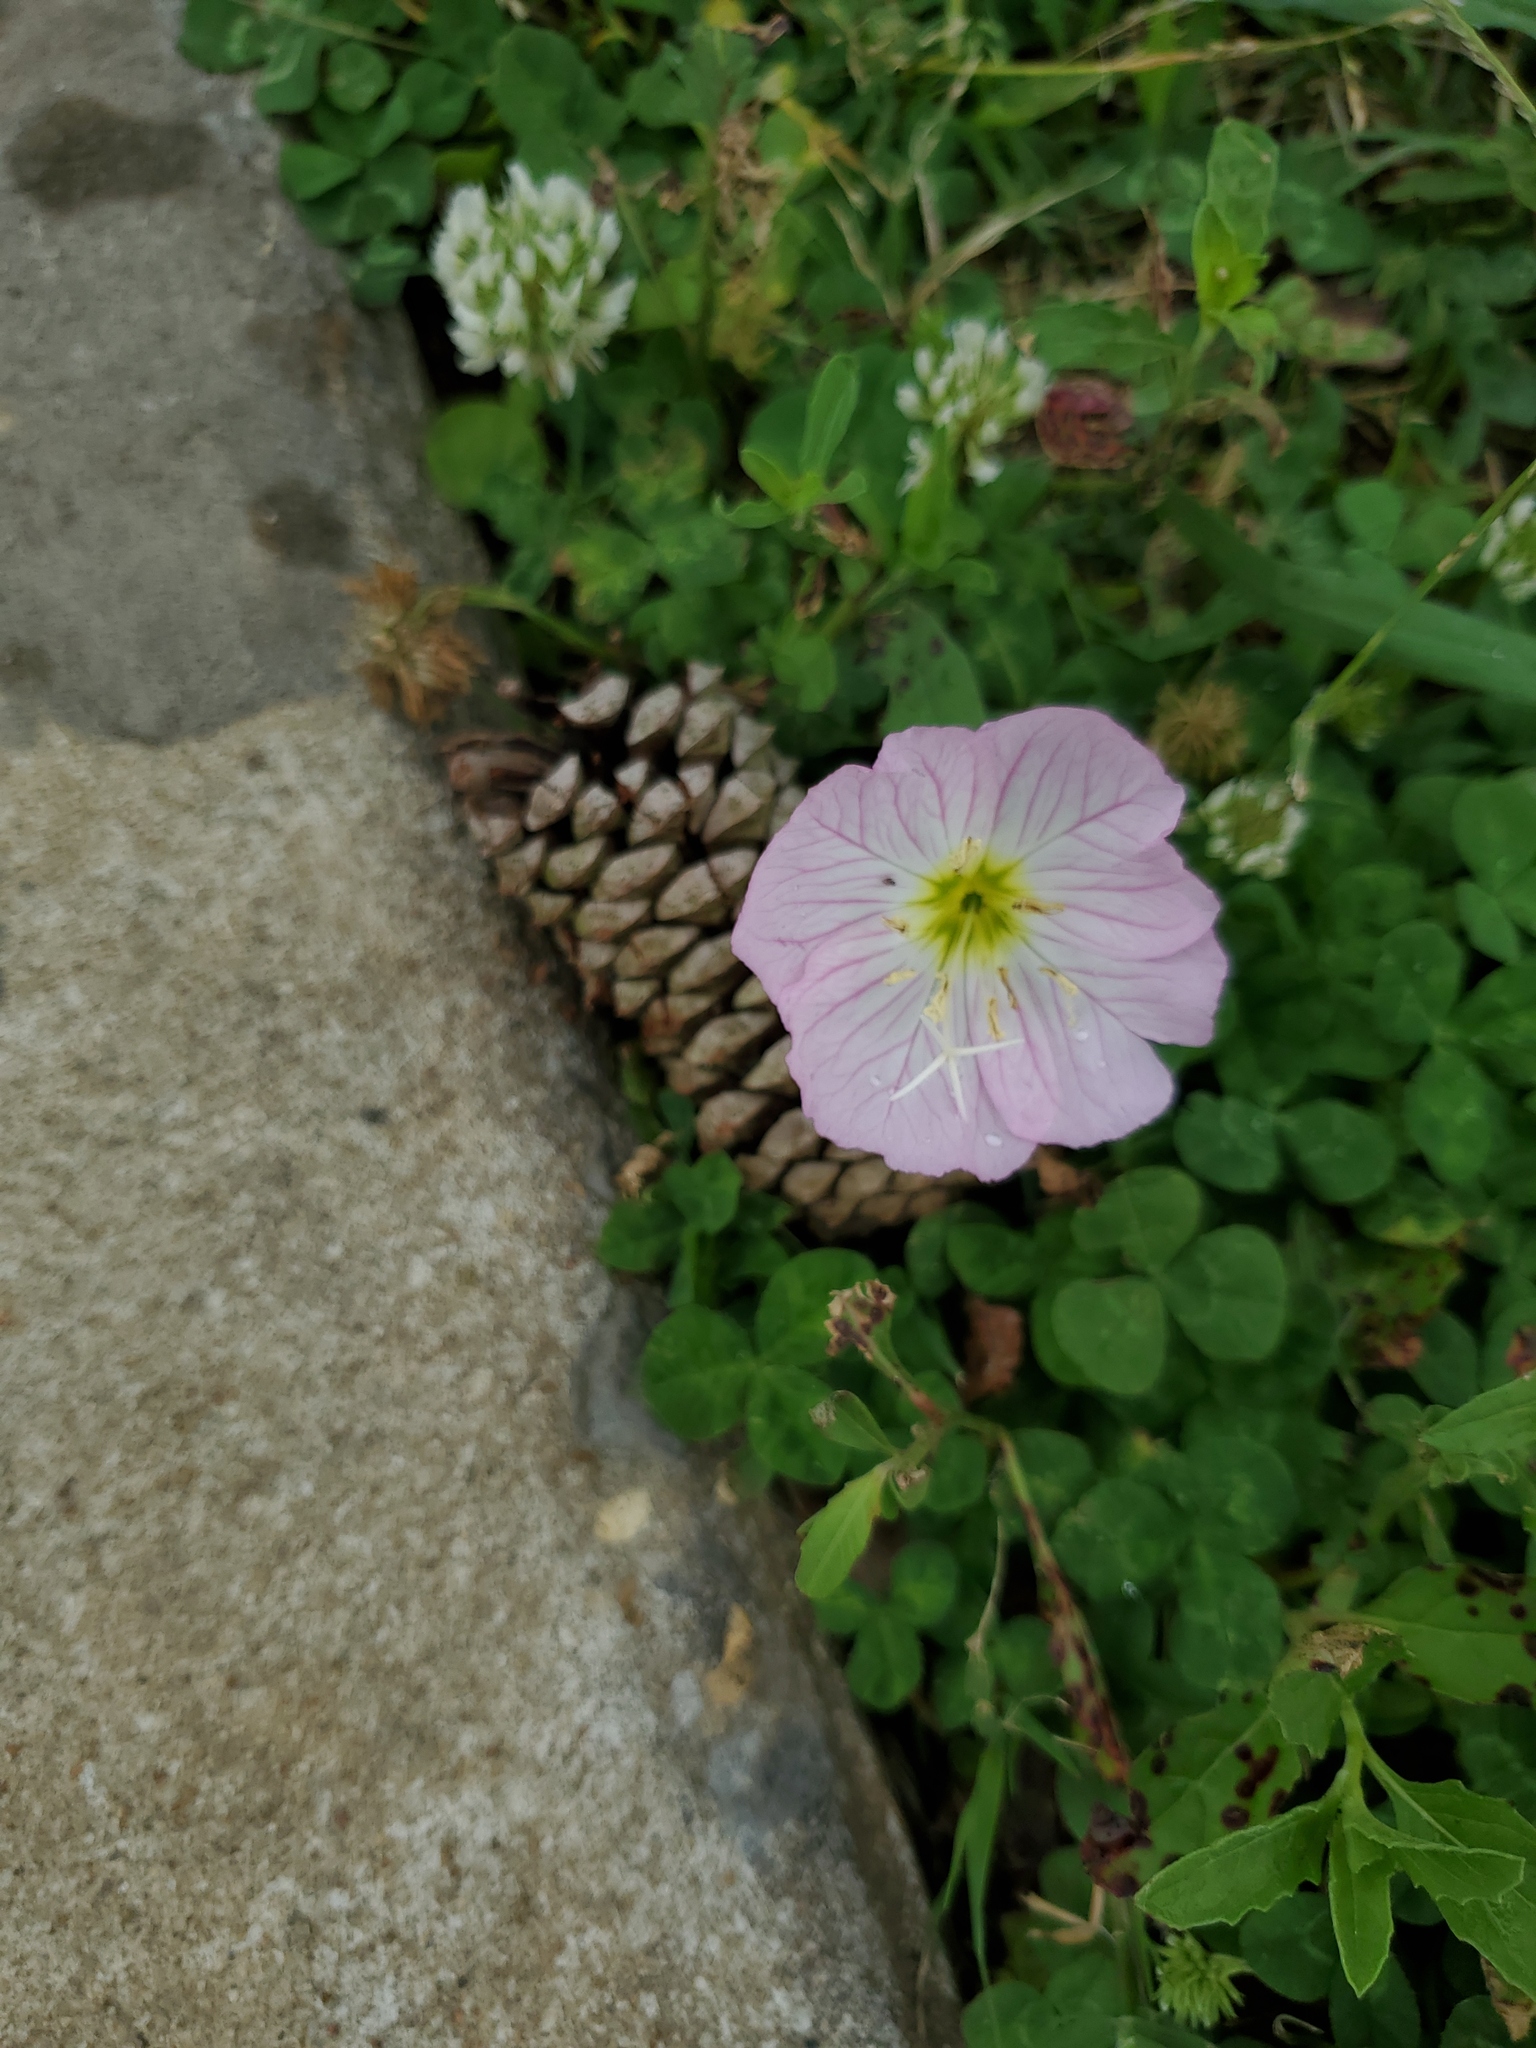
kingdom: Plantae
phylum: Tracheophyta
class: Magnoliopsida
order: Myrtales
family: Onagraceae
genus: Oenothera
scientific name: Oenothera speciosa
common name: White evening-primrose
